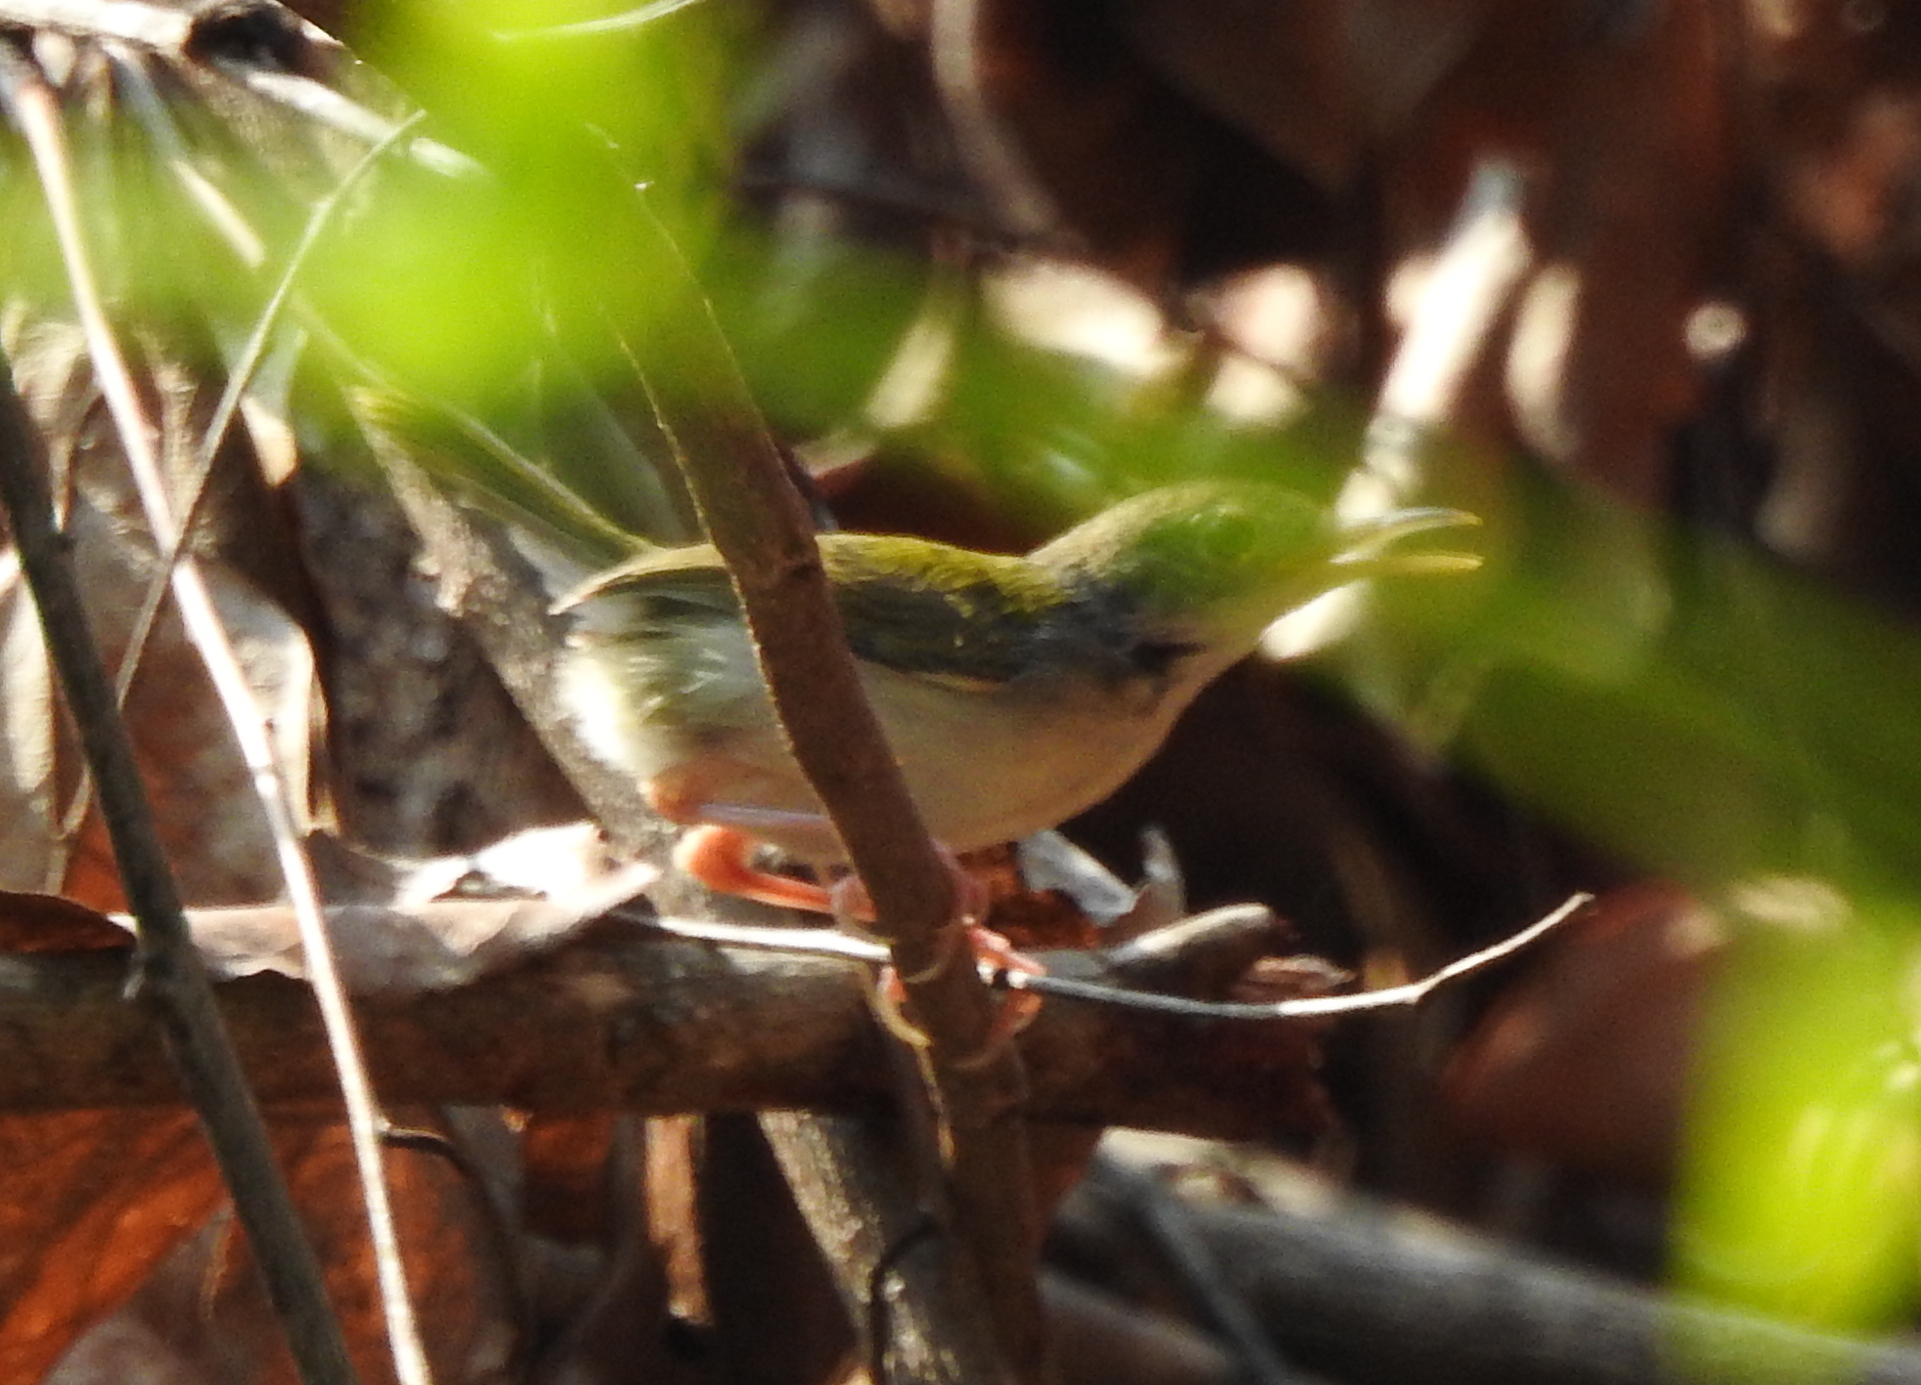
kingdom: Animalia
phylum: Chordata
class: Aves
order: Passeriformes
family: Cisticolidae
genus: Orthotomus
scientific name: Orthotomus sutorius
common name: Common tailorbird
